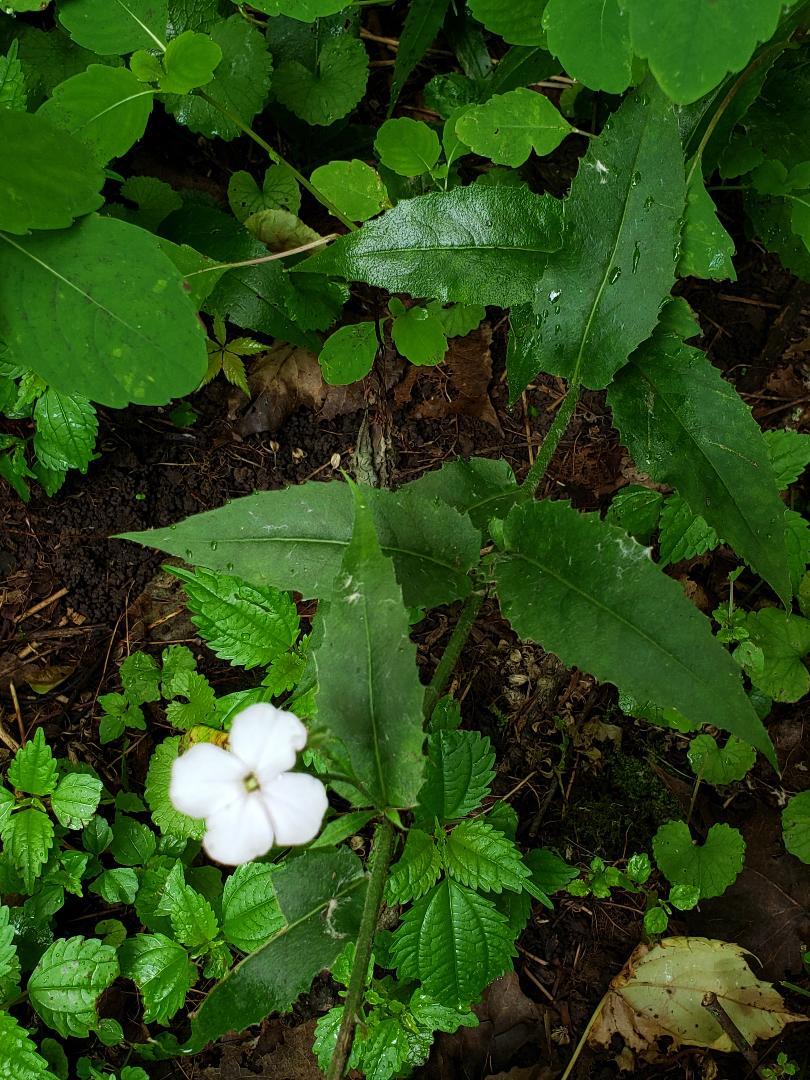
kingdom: Plantae
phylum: Tracheophyta
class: Magnoliopsida
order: Brassicales
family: Brassicaceae
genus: Hesperis
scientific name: Hesperis matronalis
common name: Dame's-violet
